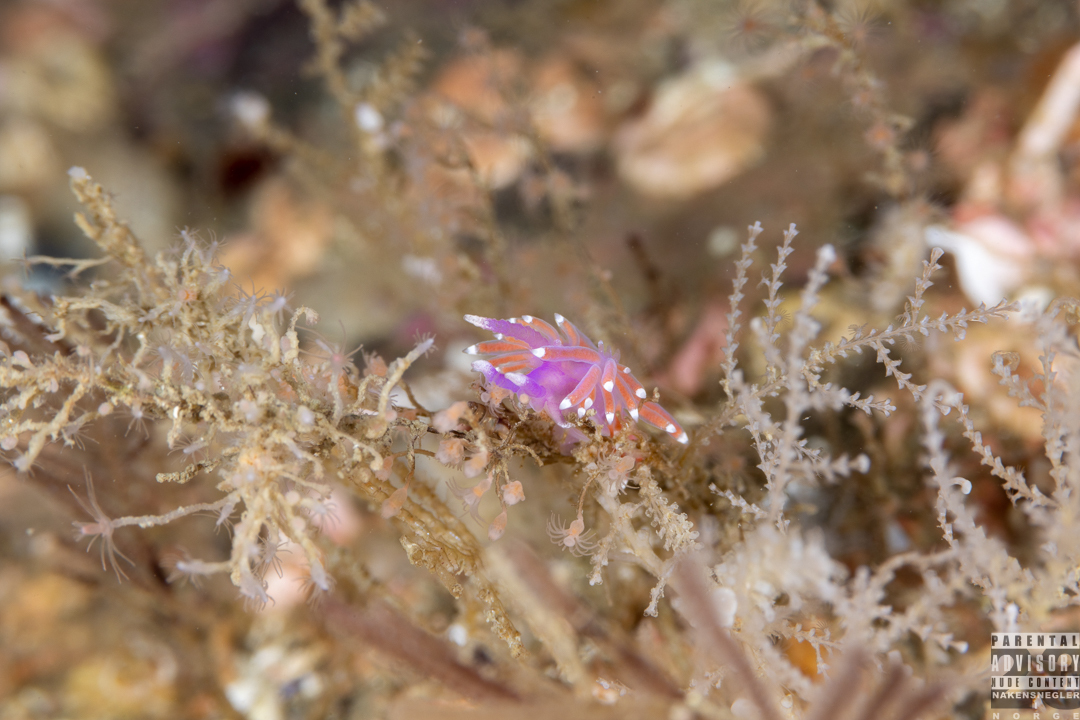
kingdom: Animalia
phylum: Mollusca
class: Gastropoda
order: Nudibranchia
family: Flabellinidae
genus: Edmundsella
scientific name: Edmundsella pedata
